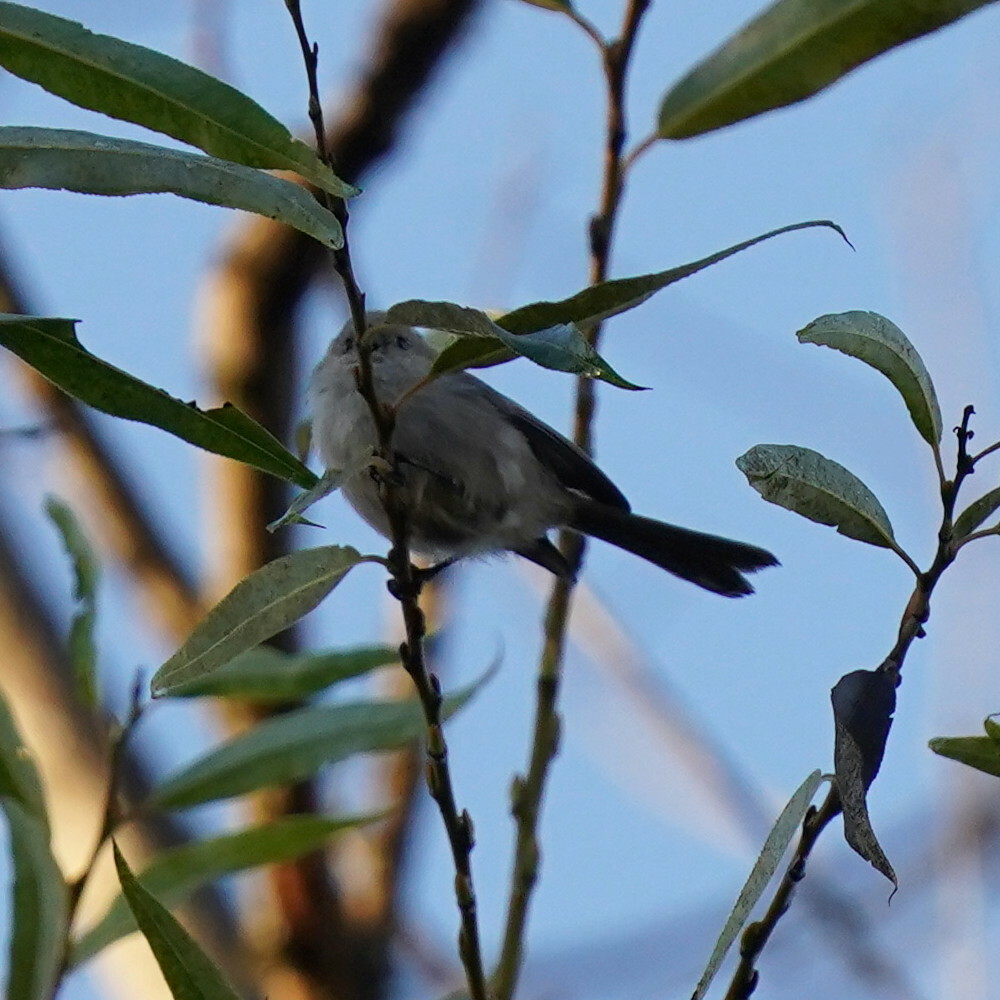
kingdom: Animalia
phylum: Chordata
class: Aves
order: Passeriformes
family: Aegithalidae
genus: Psaltriparus
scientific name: Psaltriparus minimus
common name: American bushtit
